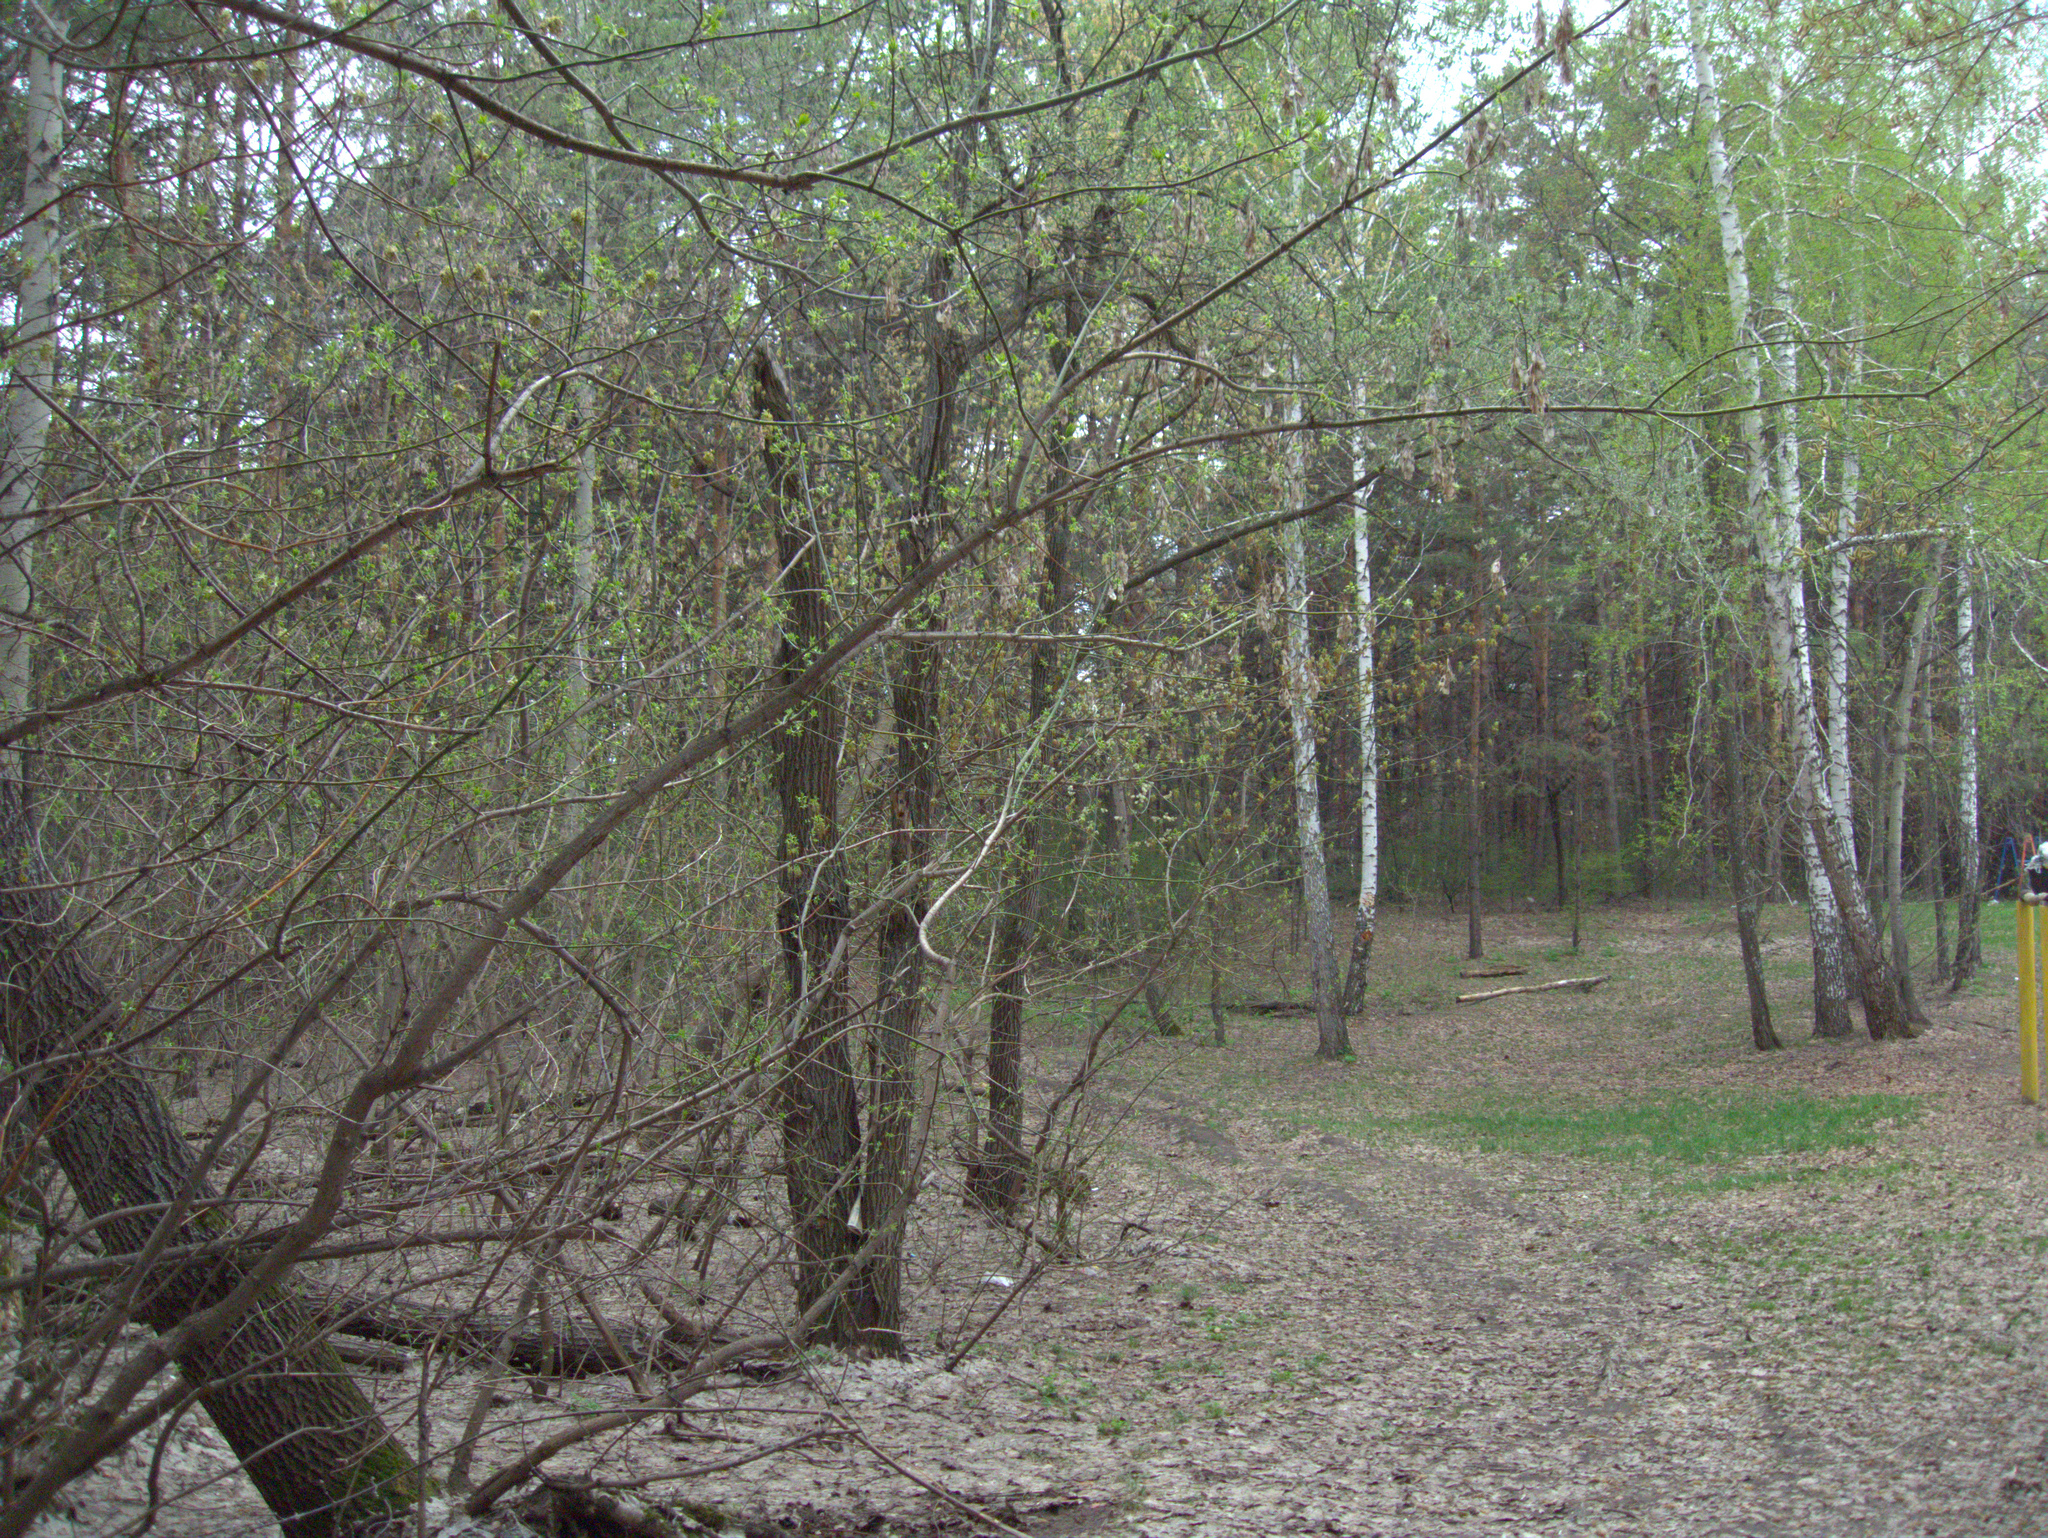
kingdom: Plantae
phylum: Tracheophyta
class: Magnoliopsida
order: Sapindales
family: Sapindaceae
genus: Acer
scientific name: Acer negundo
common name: Ashleaf maple
